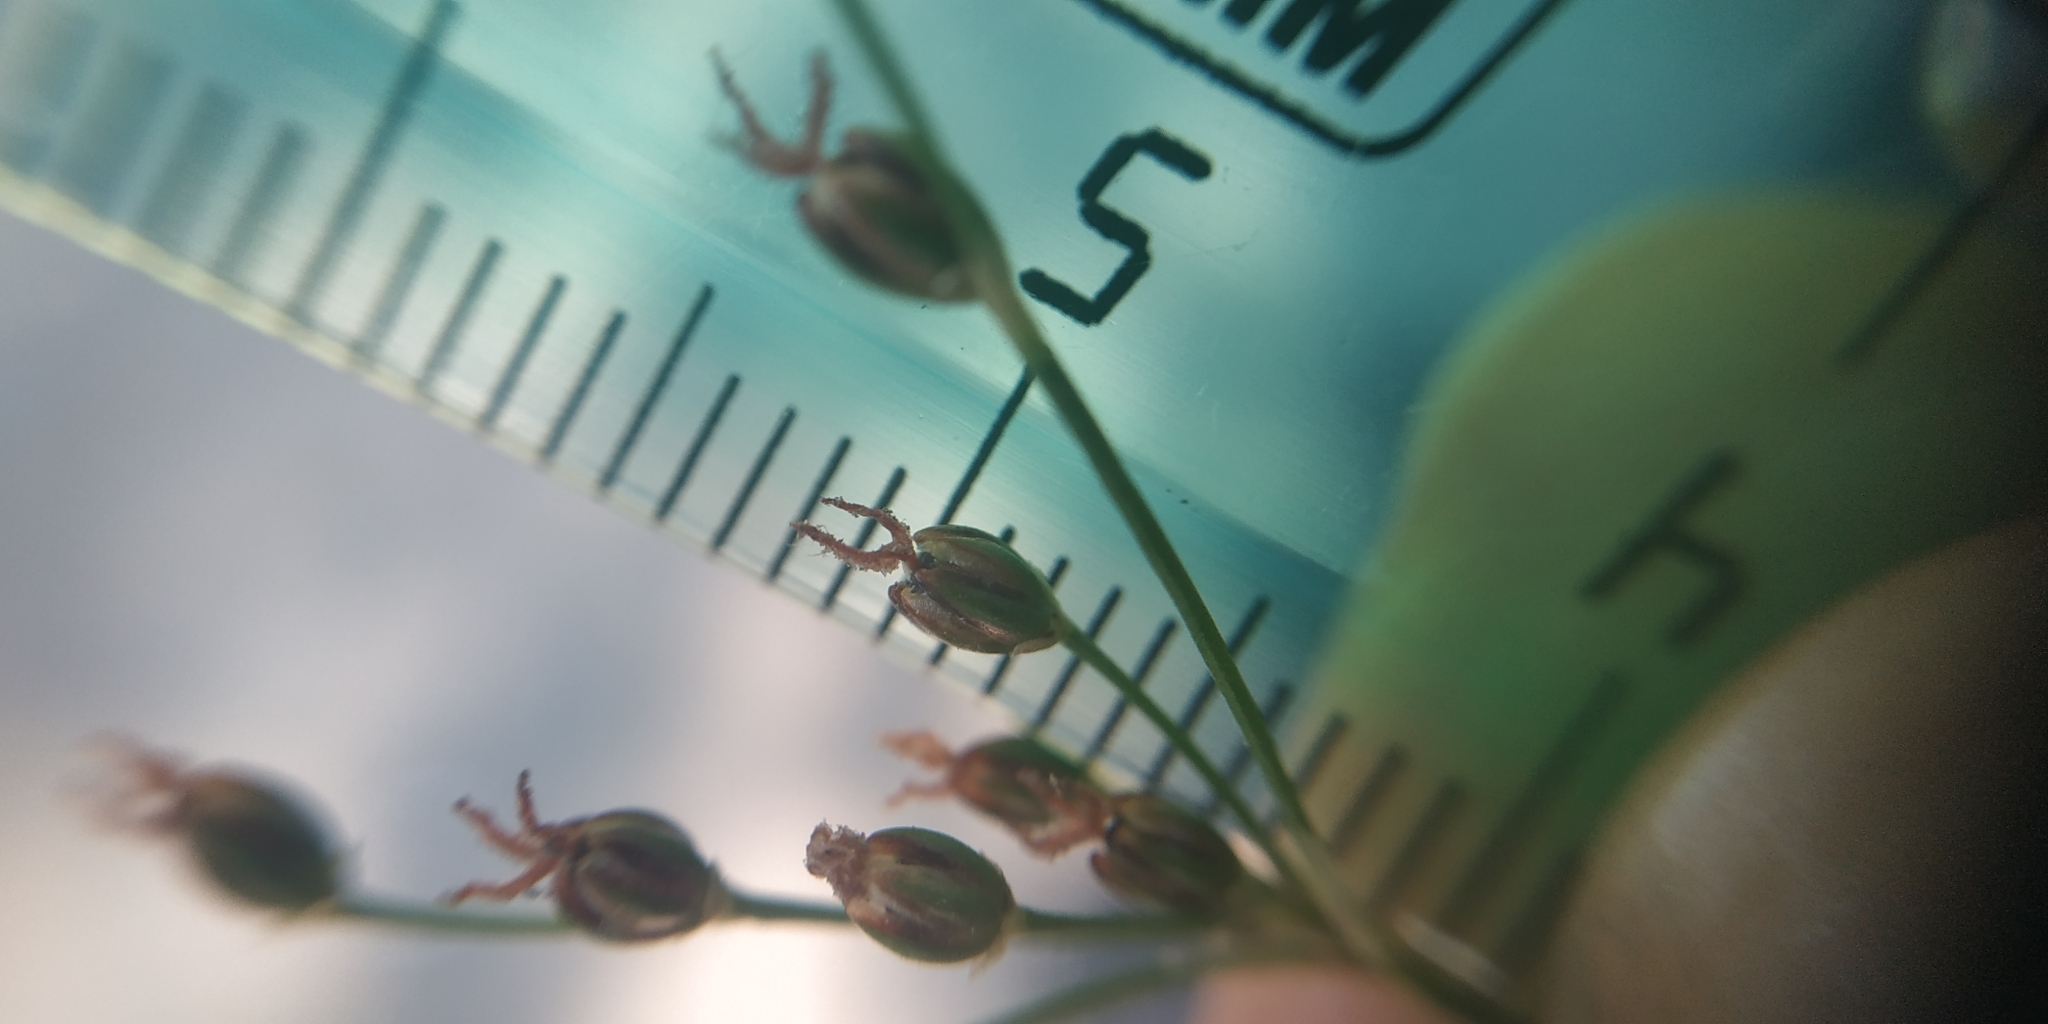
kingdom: Plantae
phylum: Tracheophyta
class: Liliopsida
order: Poales
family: Juncaceae
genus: Juncus
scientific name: Juncus compressus
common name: Round-fruited rush
